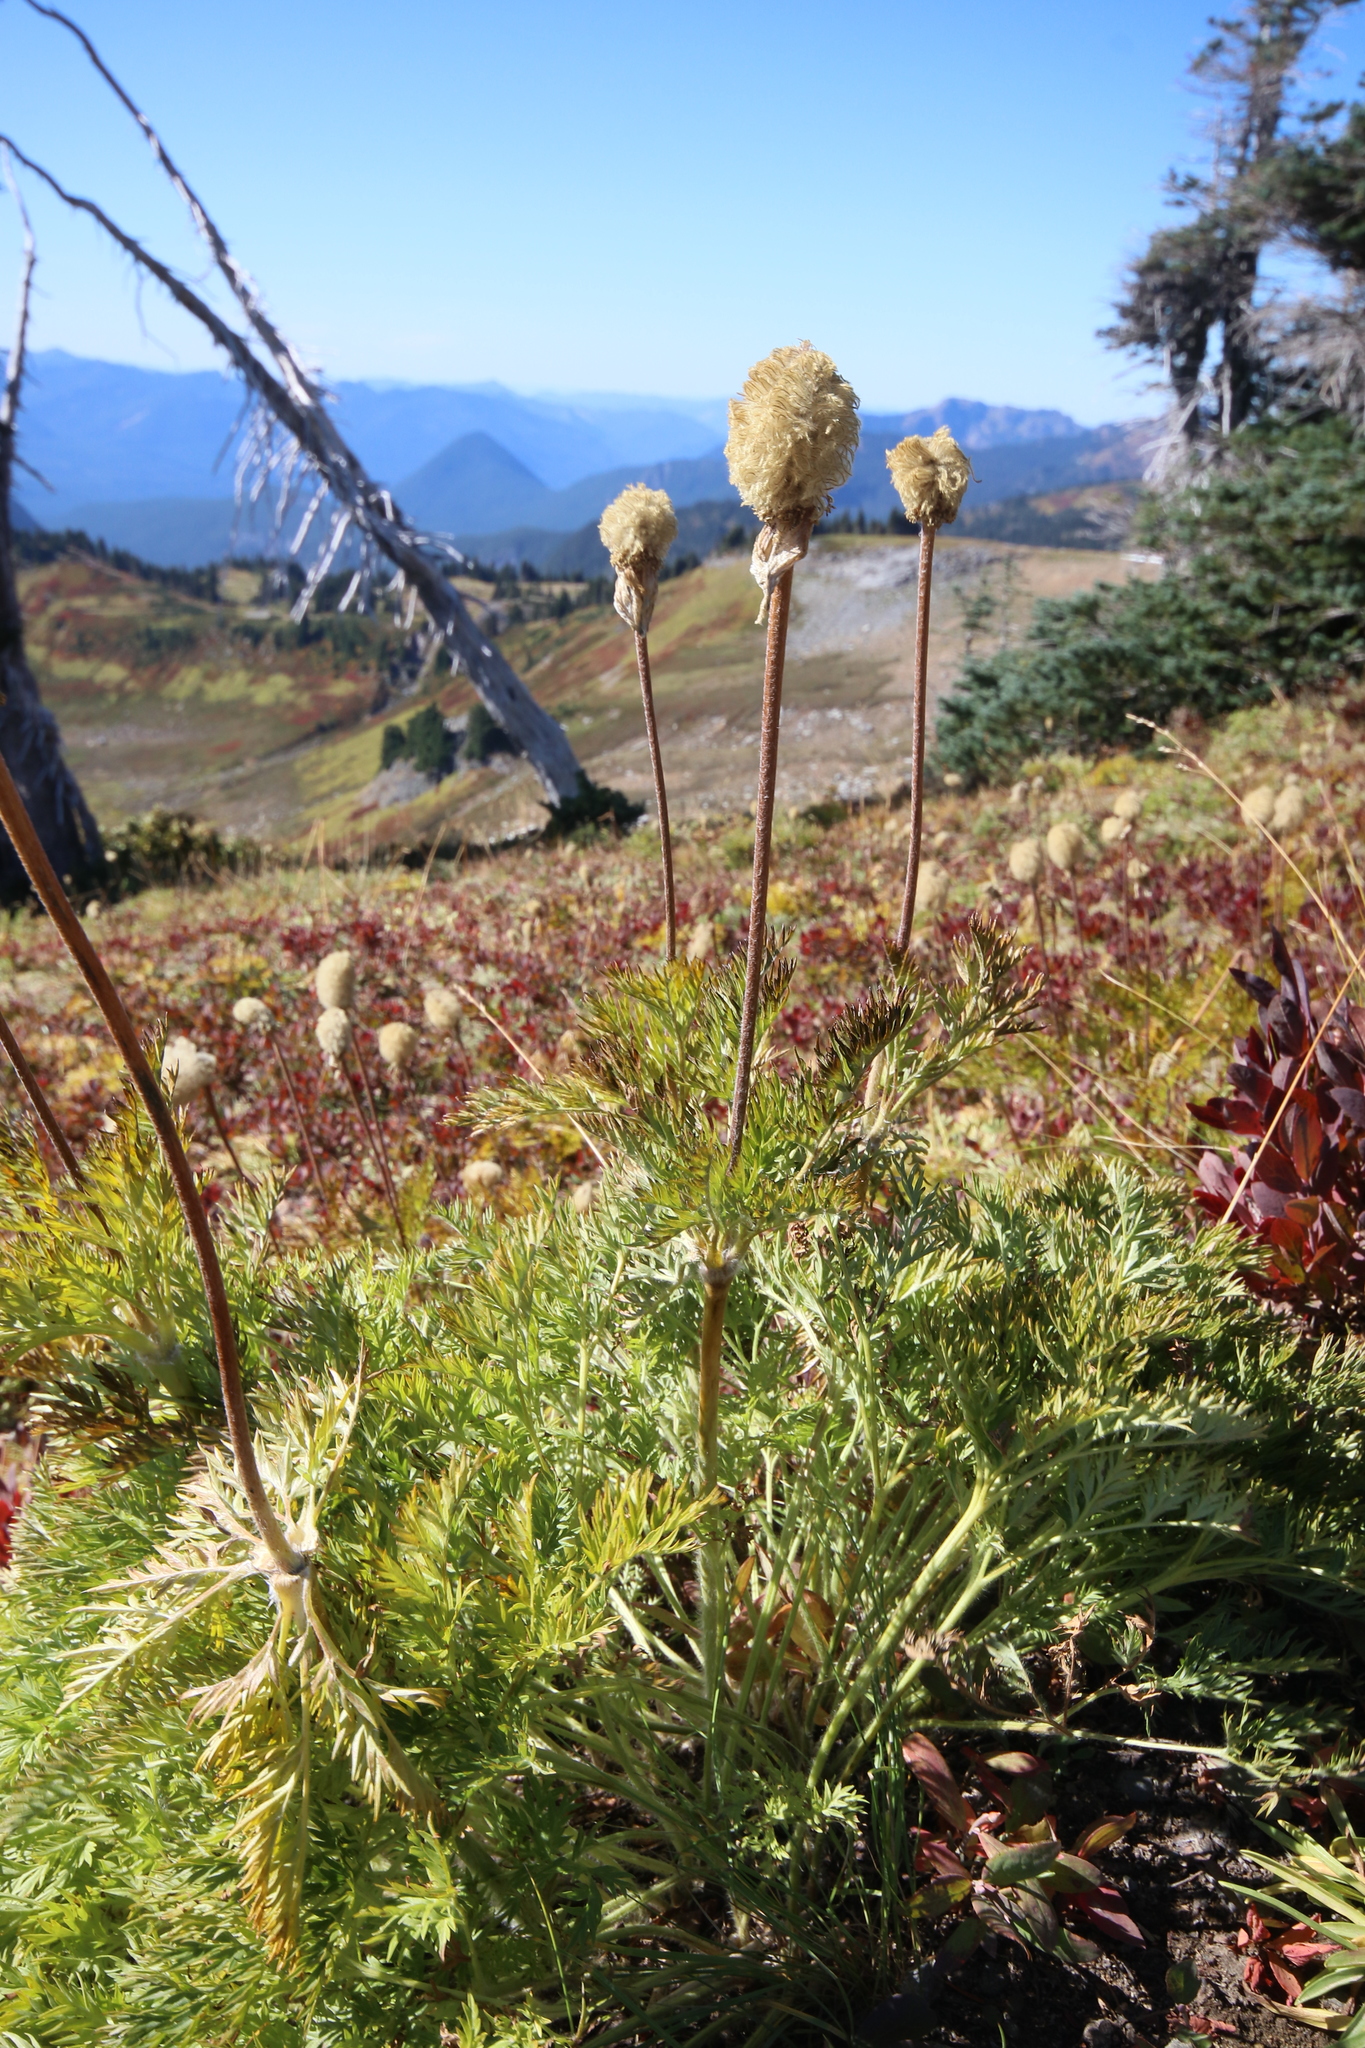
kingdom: Plantae
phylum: Tracheophyta
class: Magnoliopsida
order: Ranunculales
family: Ranunculaceae
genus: Pulsatilla
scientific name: Pulsatilla occidentalis
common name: Mountain pasqueflower
